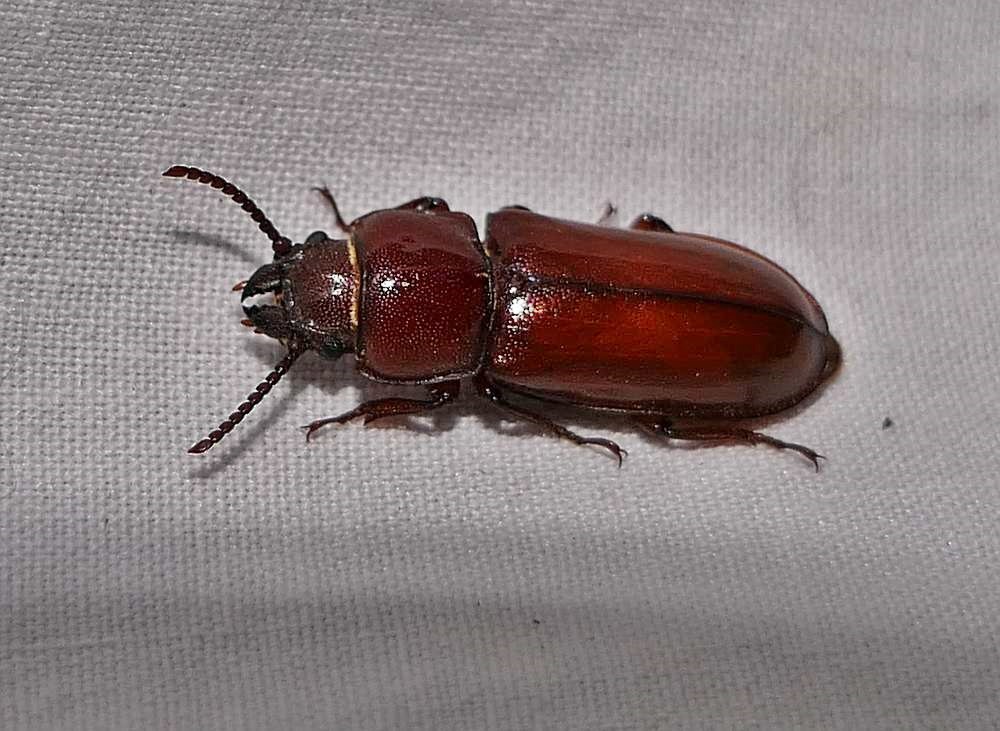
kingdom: Animalia
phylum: Arthropoda
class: Insecta
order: Coleoptera
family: Cerambycidae
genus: Neandra
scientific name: Neandra brunnea
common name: Pole borer
